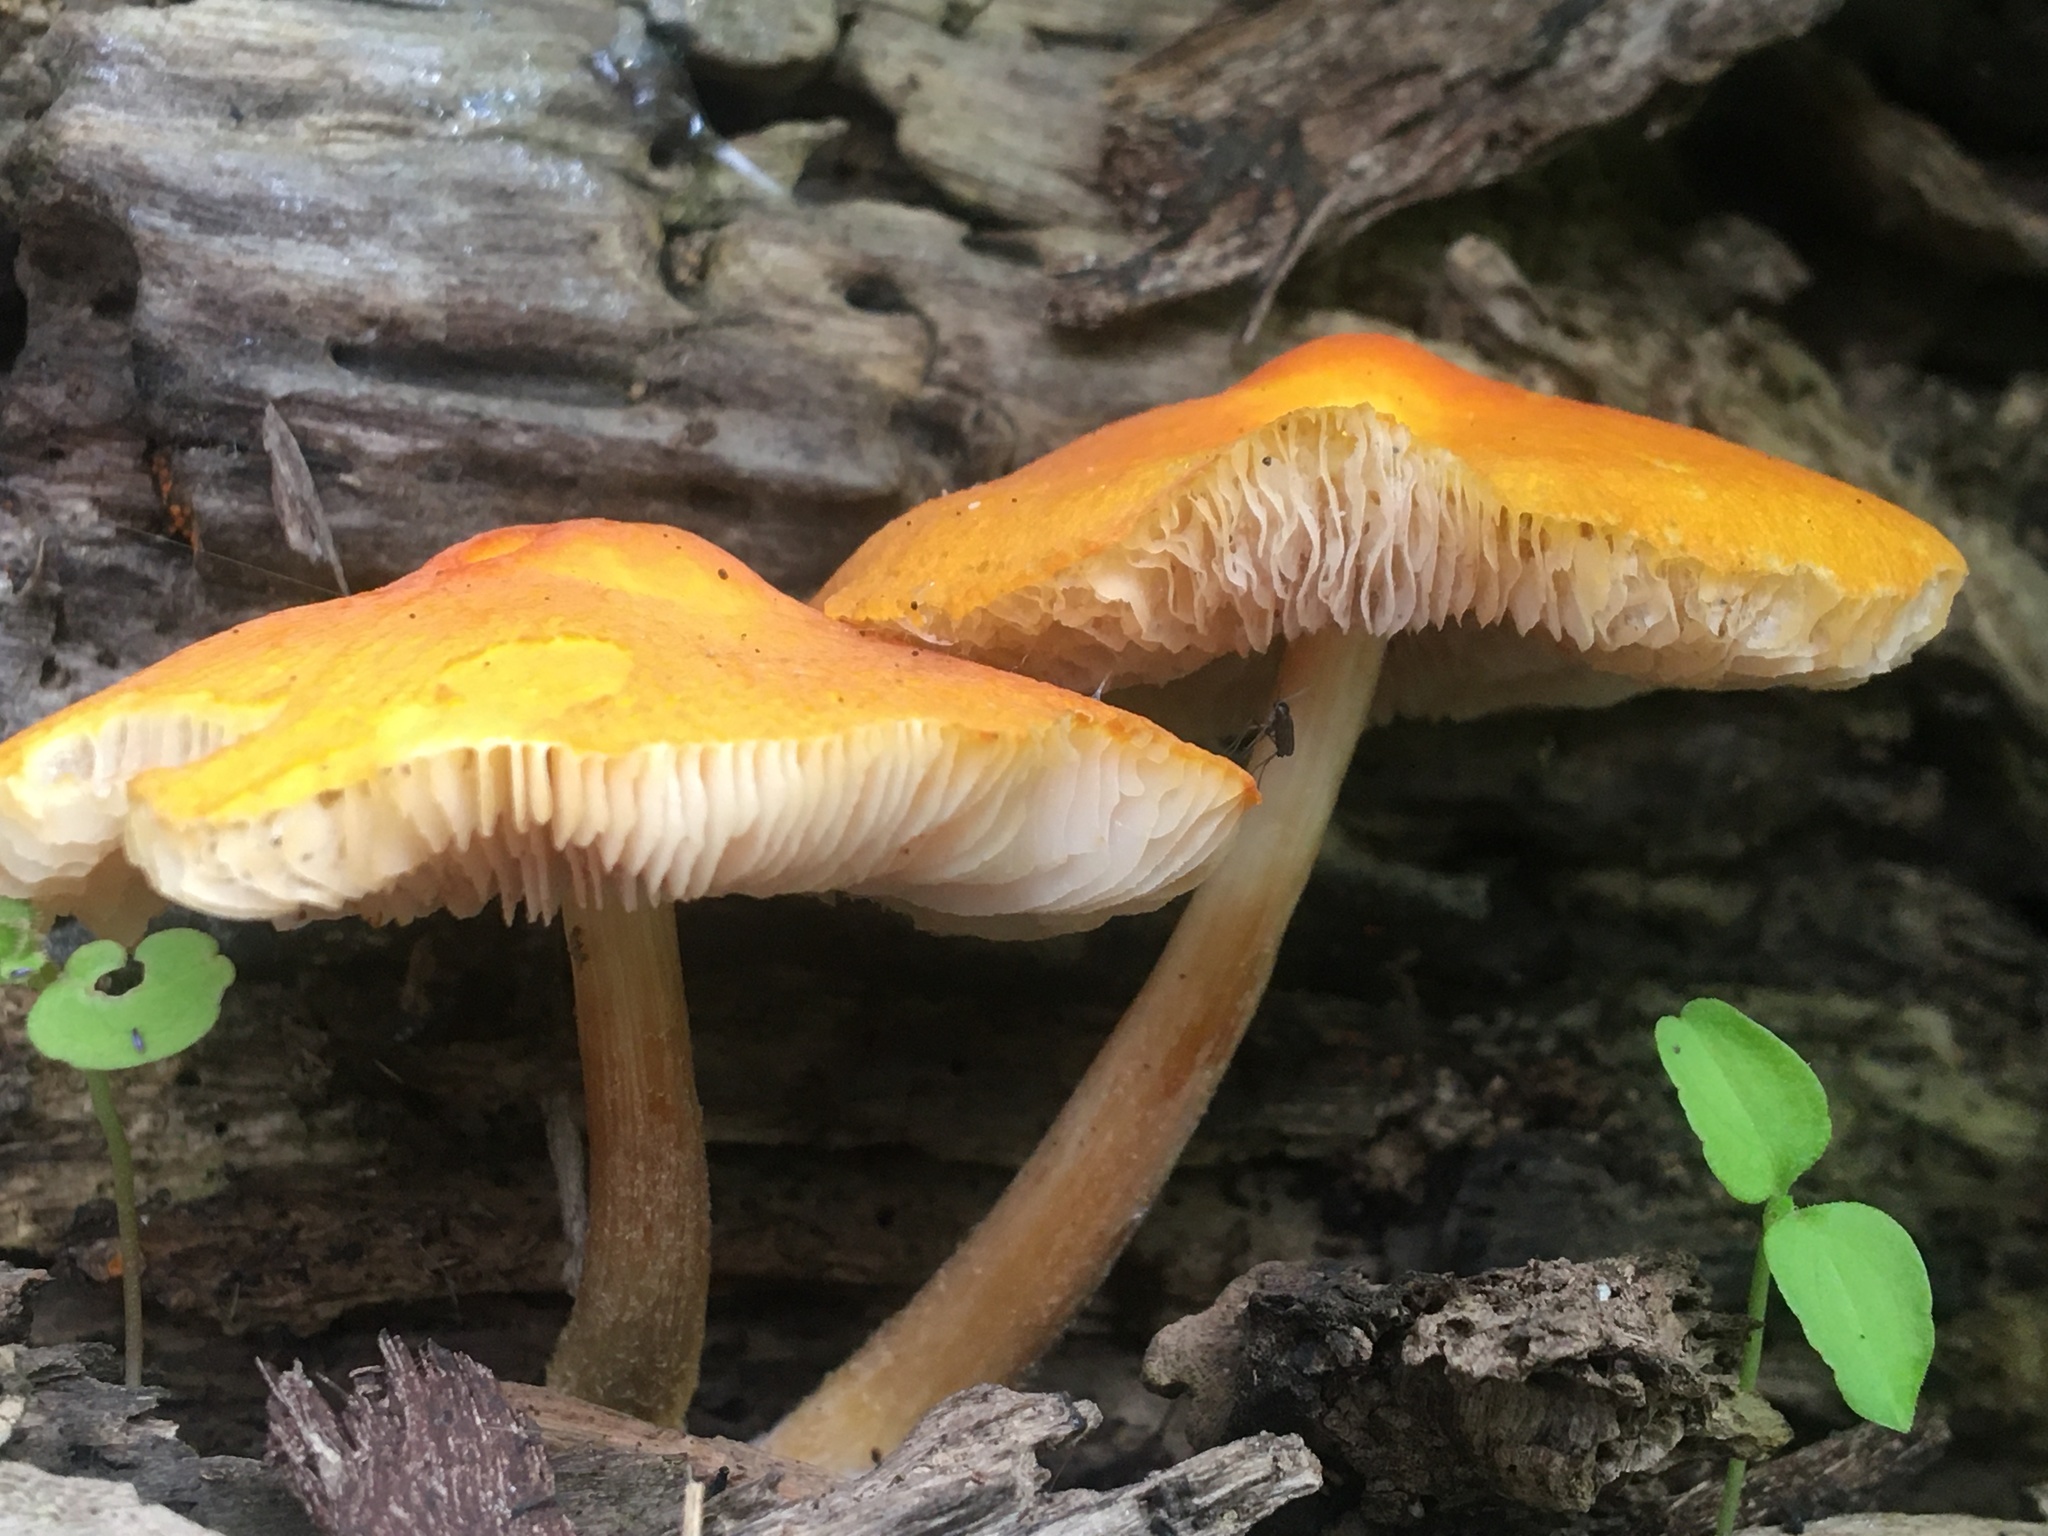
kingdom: Fungi
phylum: Basidiomycota
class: Agaricomycetes
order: Agaricales
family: Pluteaceae
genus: Pluteus
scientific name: Pluteus aurantiorugosus
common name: Flame shield
